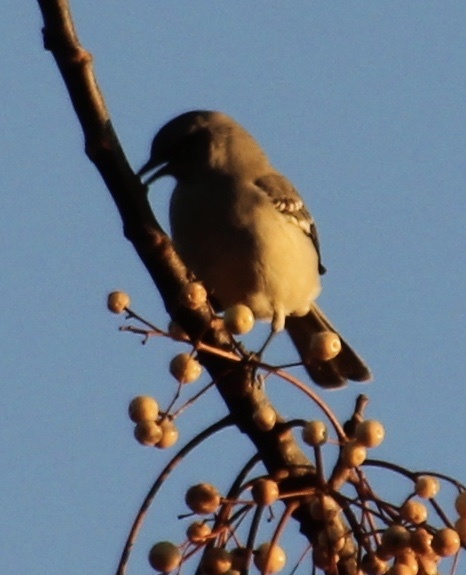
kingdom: Animalia
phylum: Chordata
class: Aves
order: Passeriformes
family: Mimidae
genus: Mimus
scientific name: Mimus polyglottos
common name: Northern mockingbird
